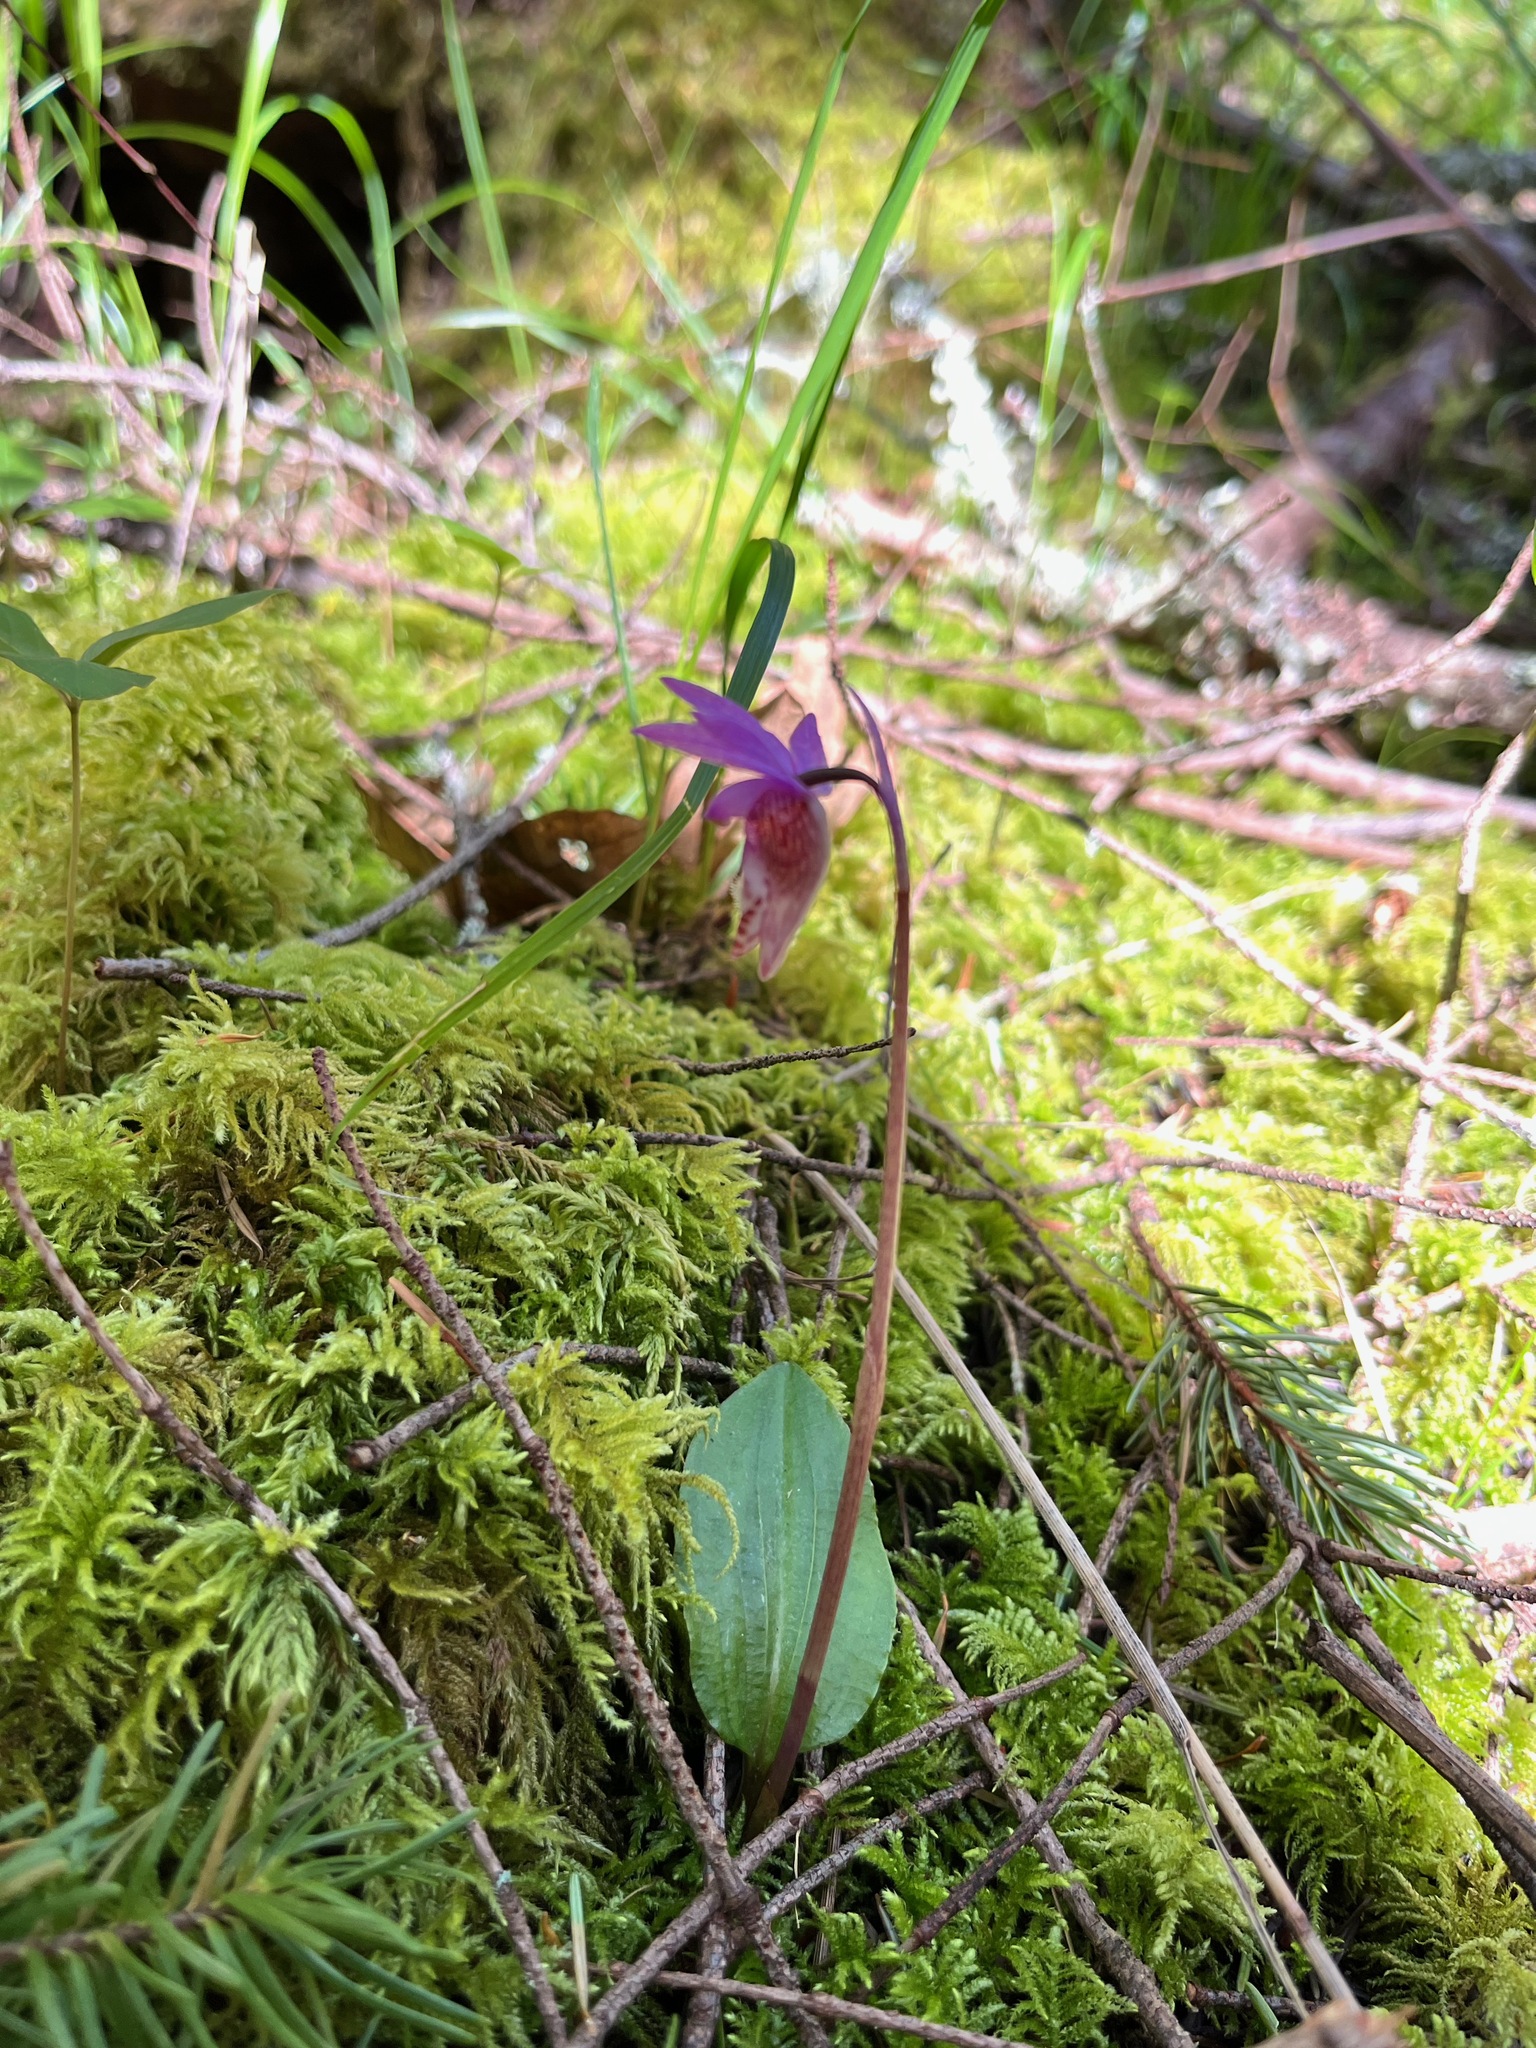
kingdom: Plantae
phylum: Tracheophyta
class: Liliopsida
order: Asparagales
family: Orchidaceae
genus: Calypso
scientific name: Calypso bulbosa
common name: Calypso
